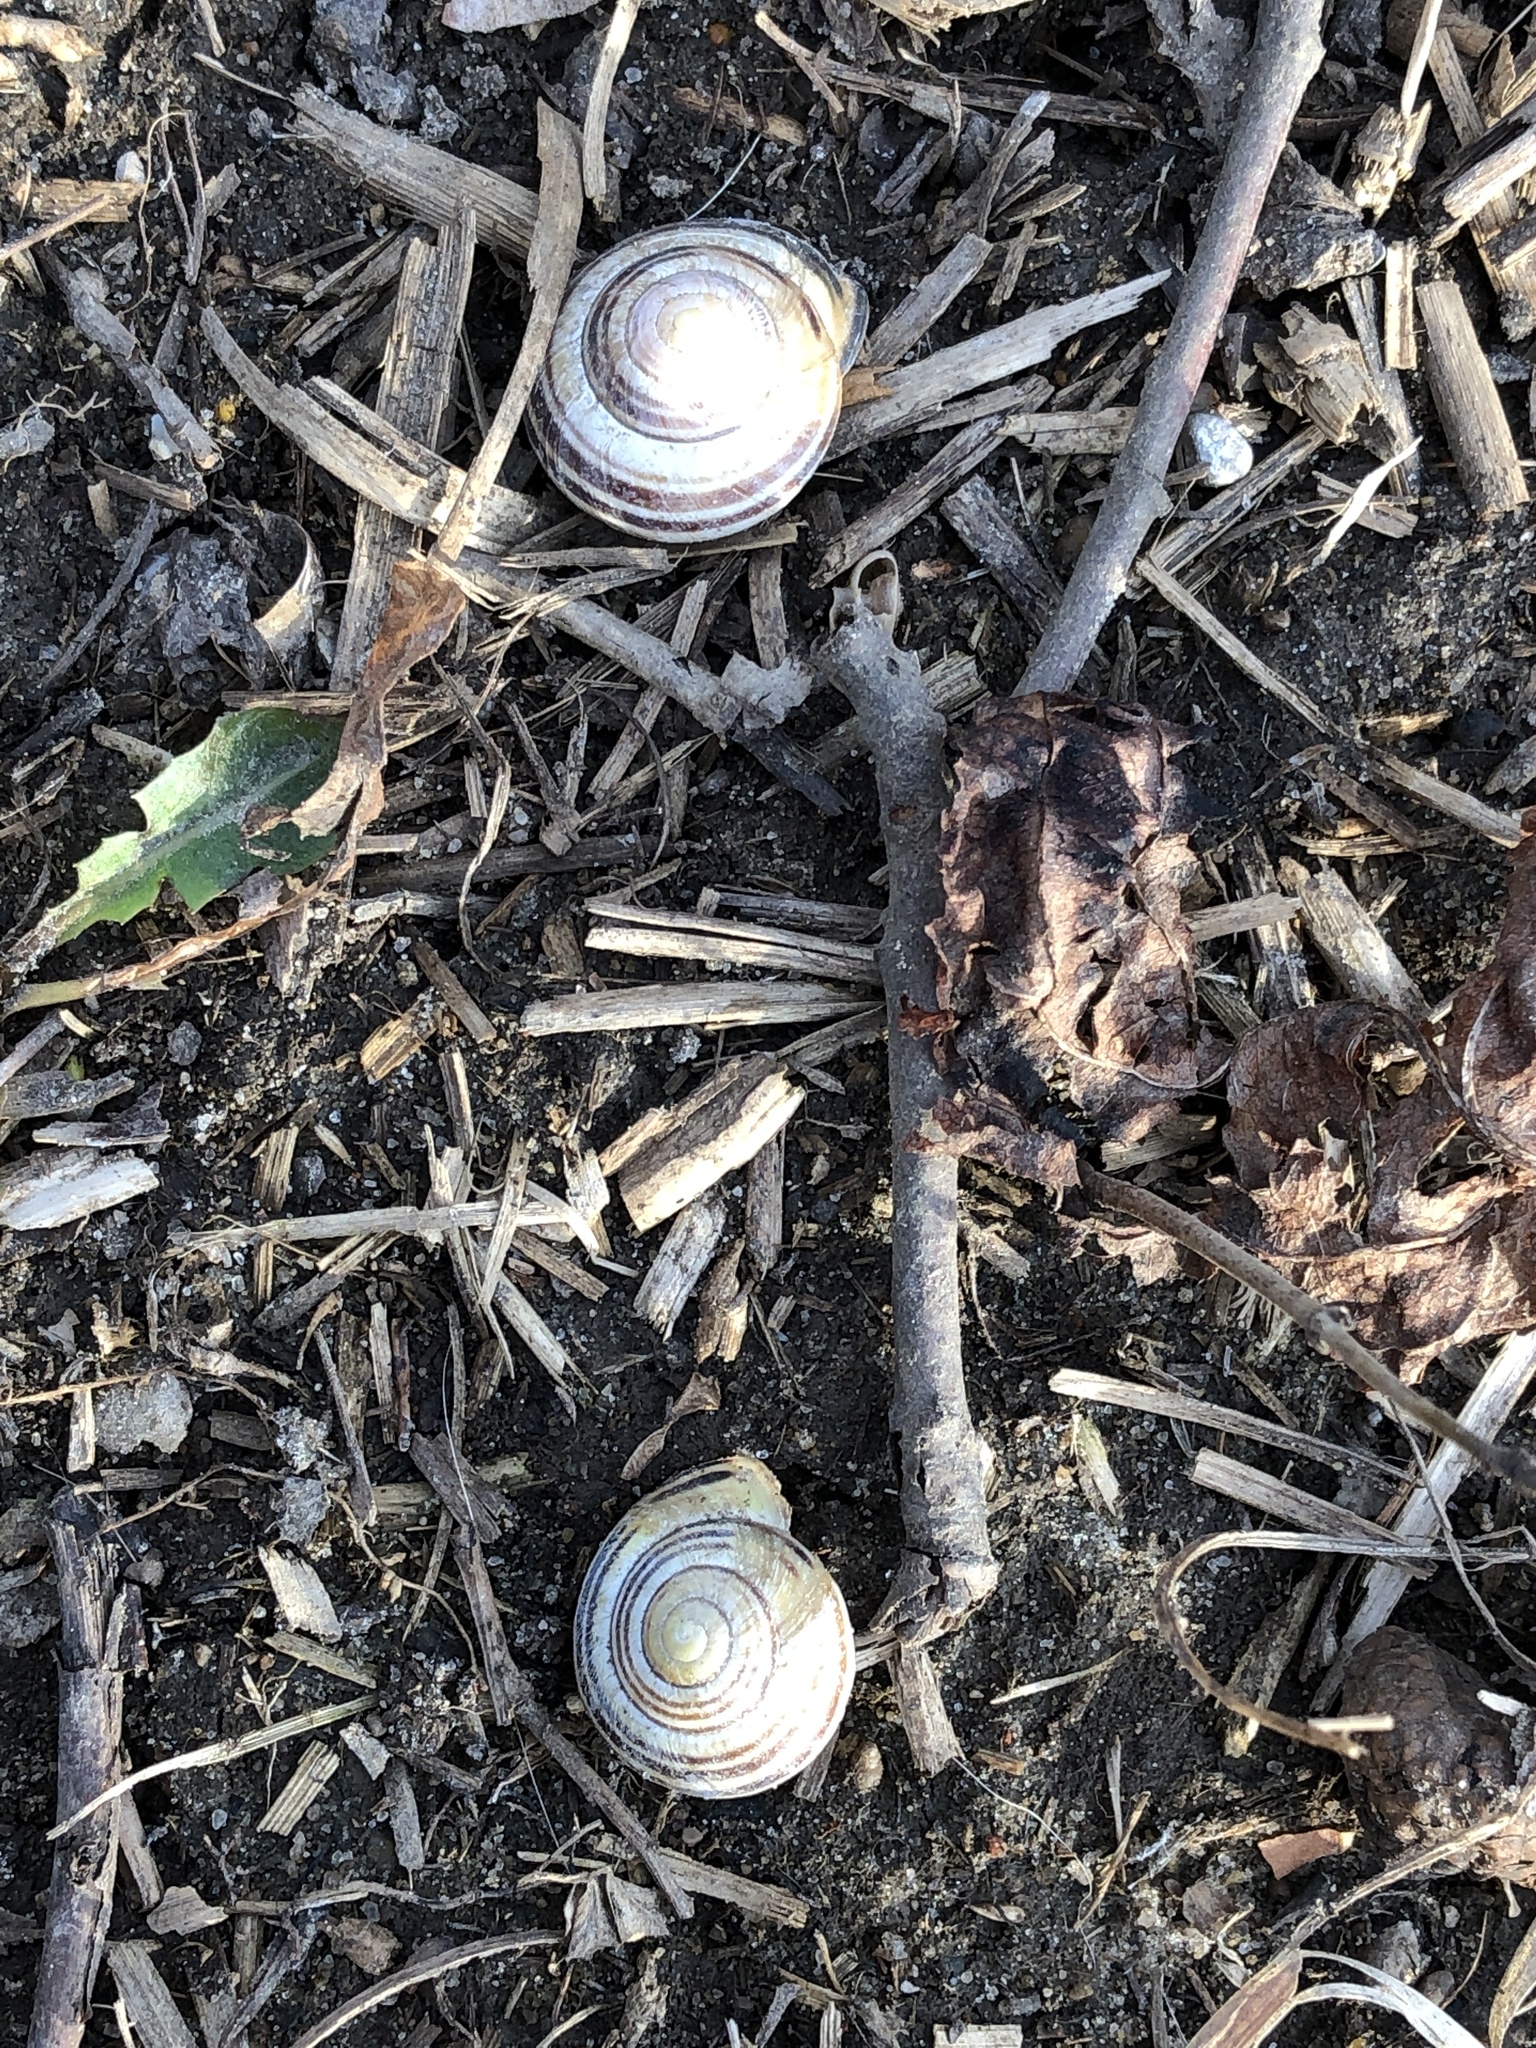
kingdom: Animalia
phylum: Mollusca
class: Gastropoda
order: Stylommatophora
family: Helicidae
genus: Cepaea
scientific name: Cepaea nemoralis
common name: Grovesnail
